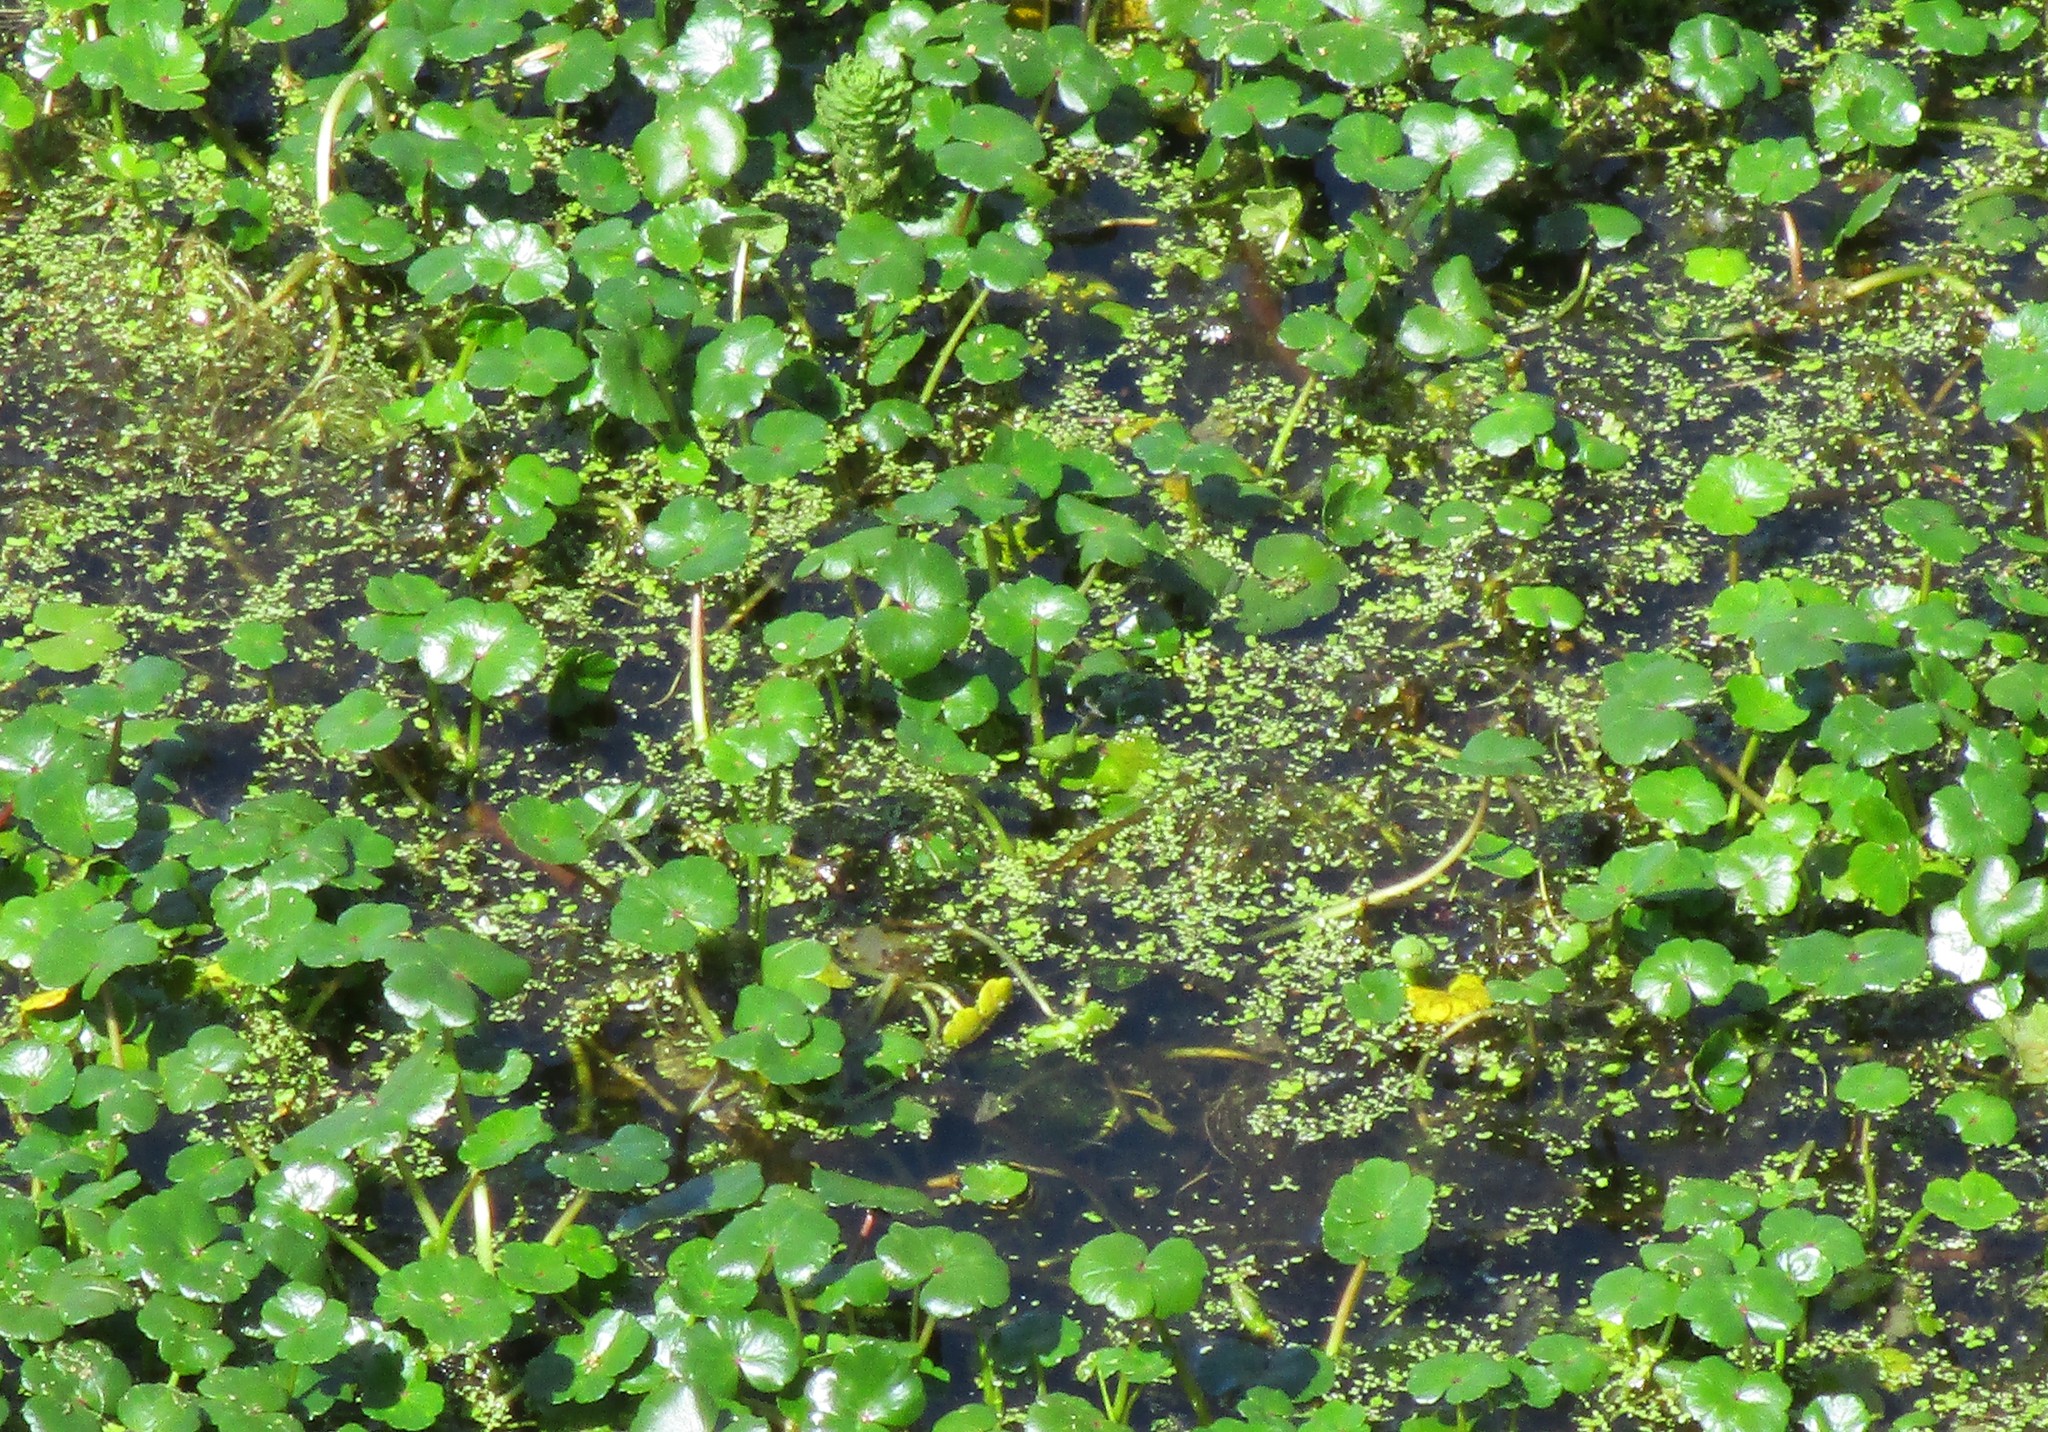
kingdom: Plantae
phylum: Tracheophyta
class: Magnoliopsida
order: Apiales
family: Araliaceae
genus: Hydrocotyle
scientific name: Hydrocotyle ranunculoides
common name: Floating pennywort
